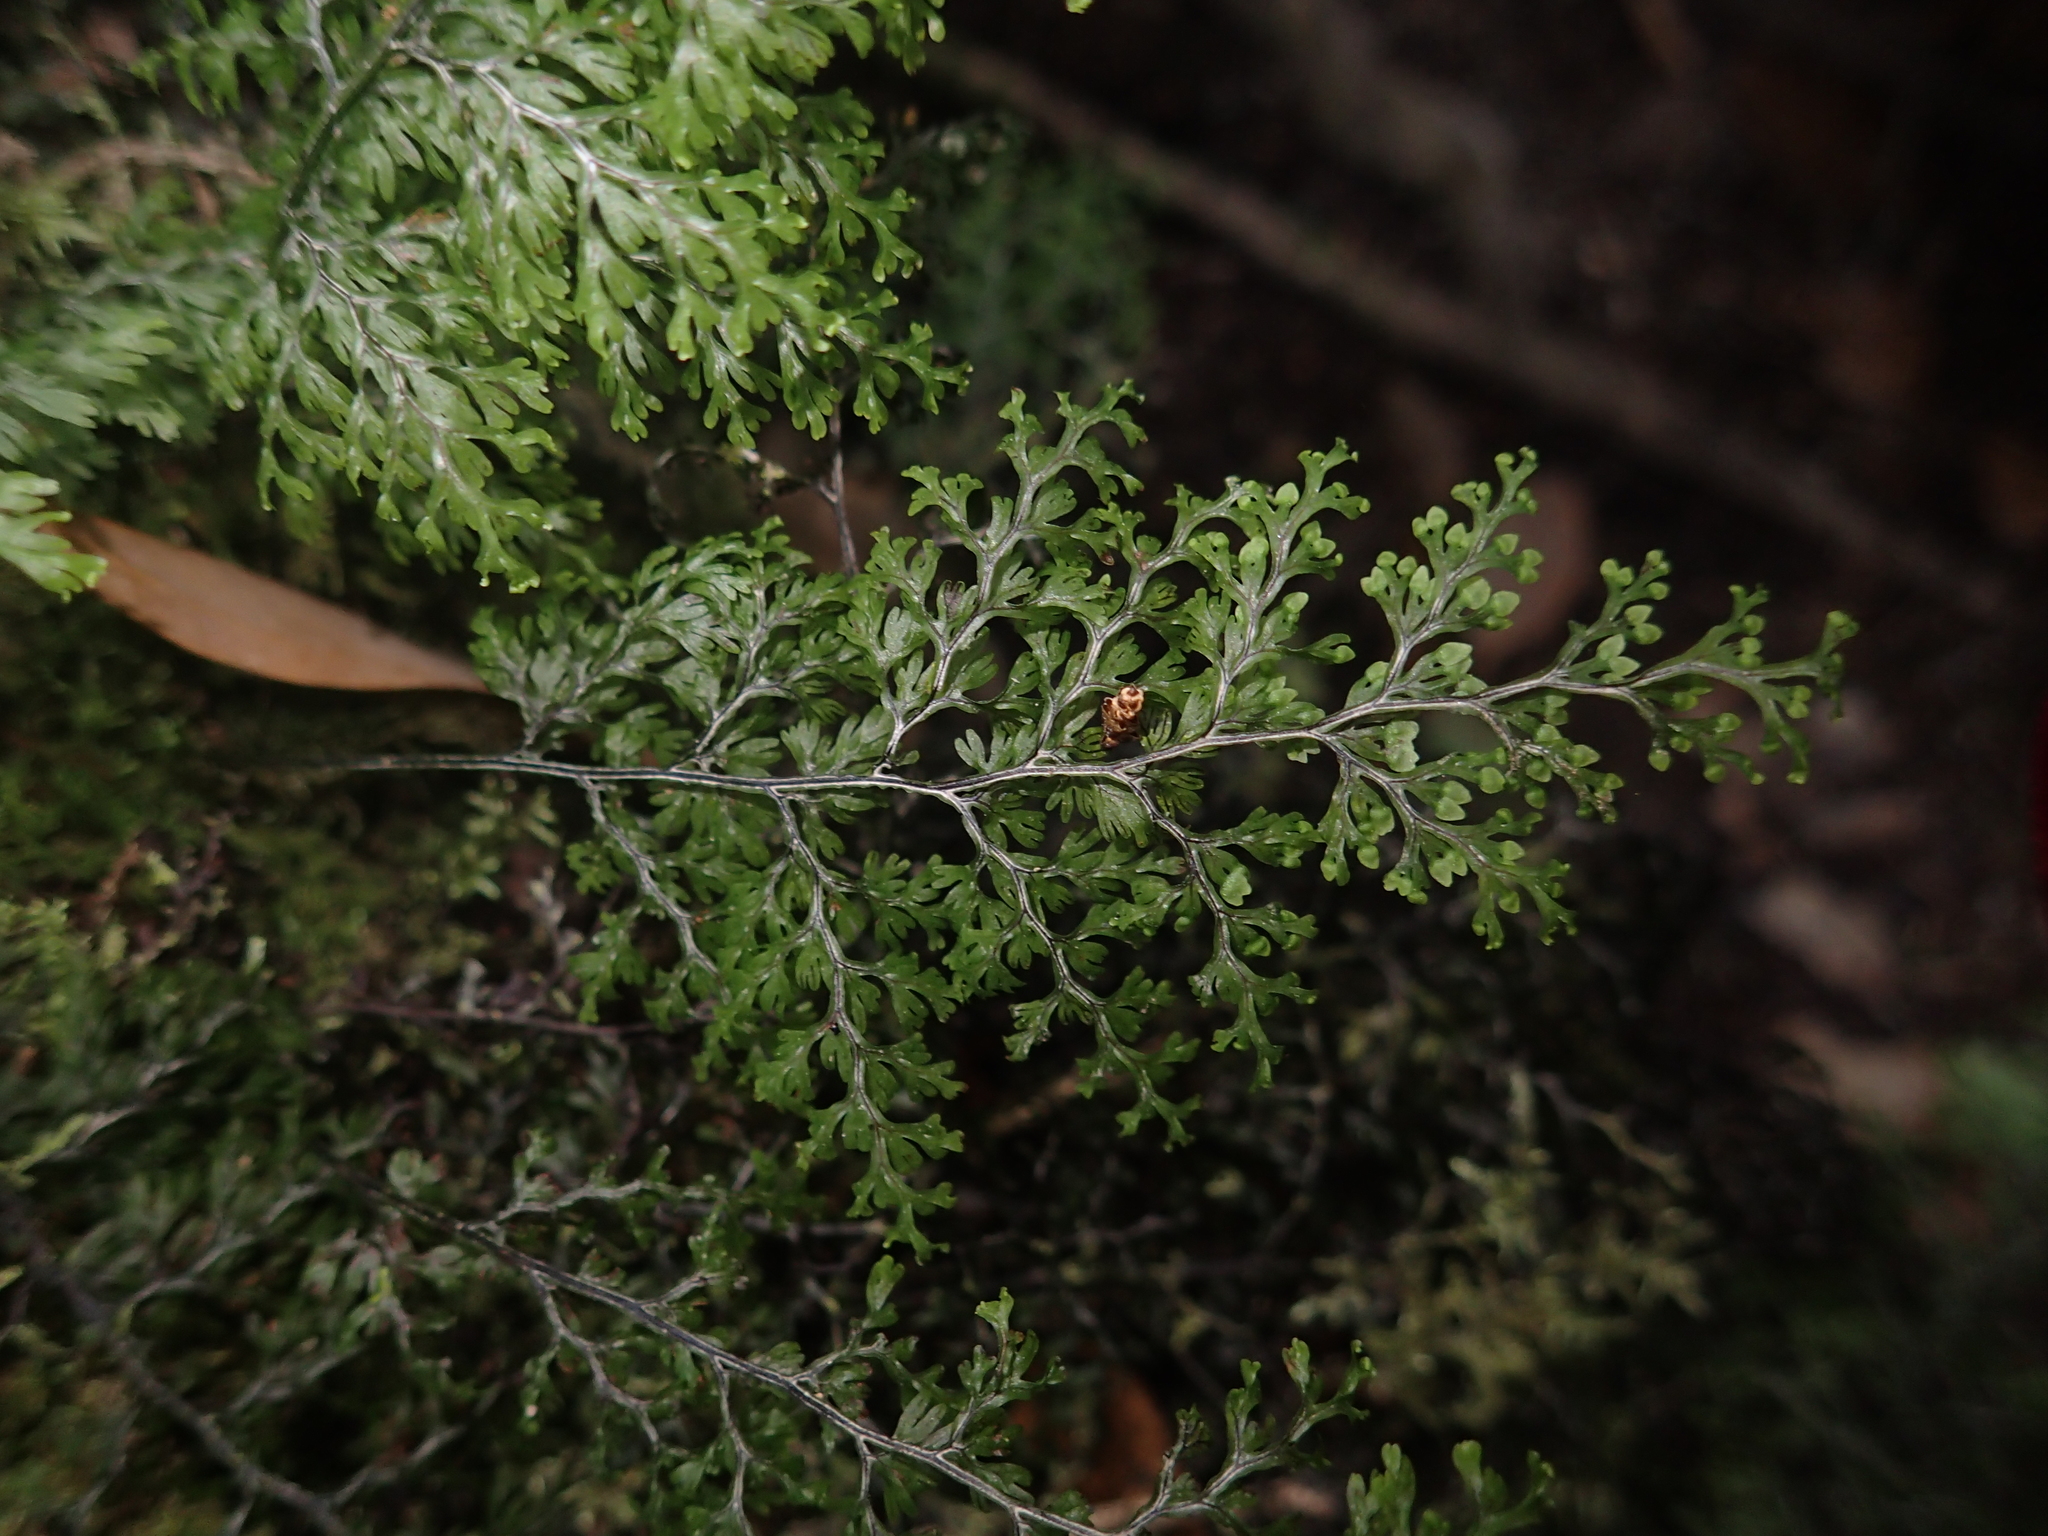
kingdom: Plantae
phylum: Tracheophyta
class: Polypodiopsida
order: Hymenophyllales
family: Hymenophyllaceae
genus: Callistopteris
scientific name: Callistopteris polyantha
